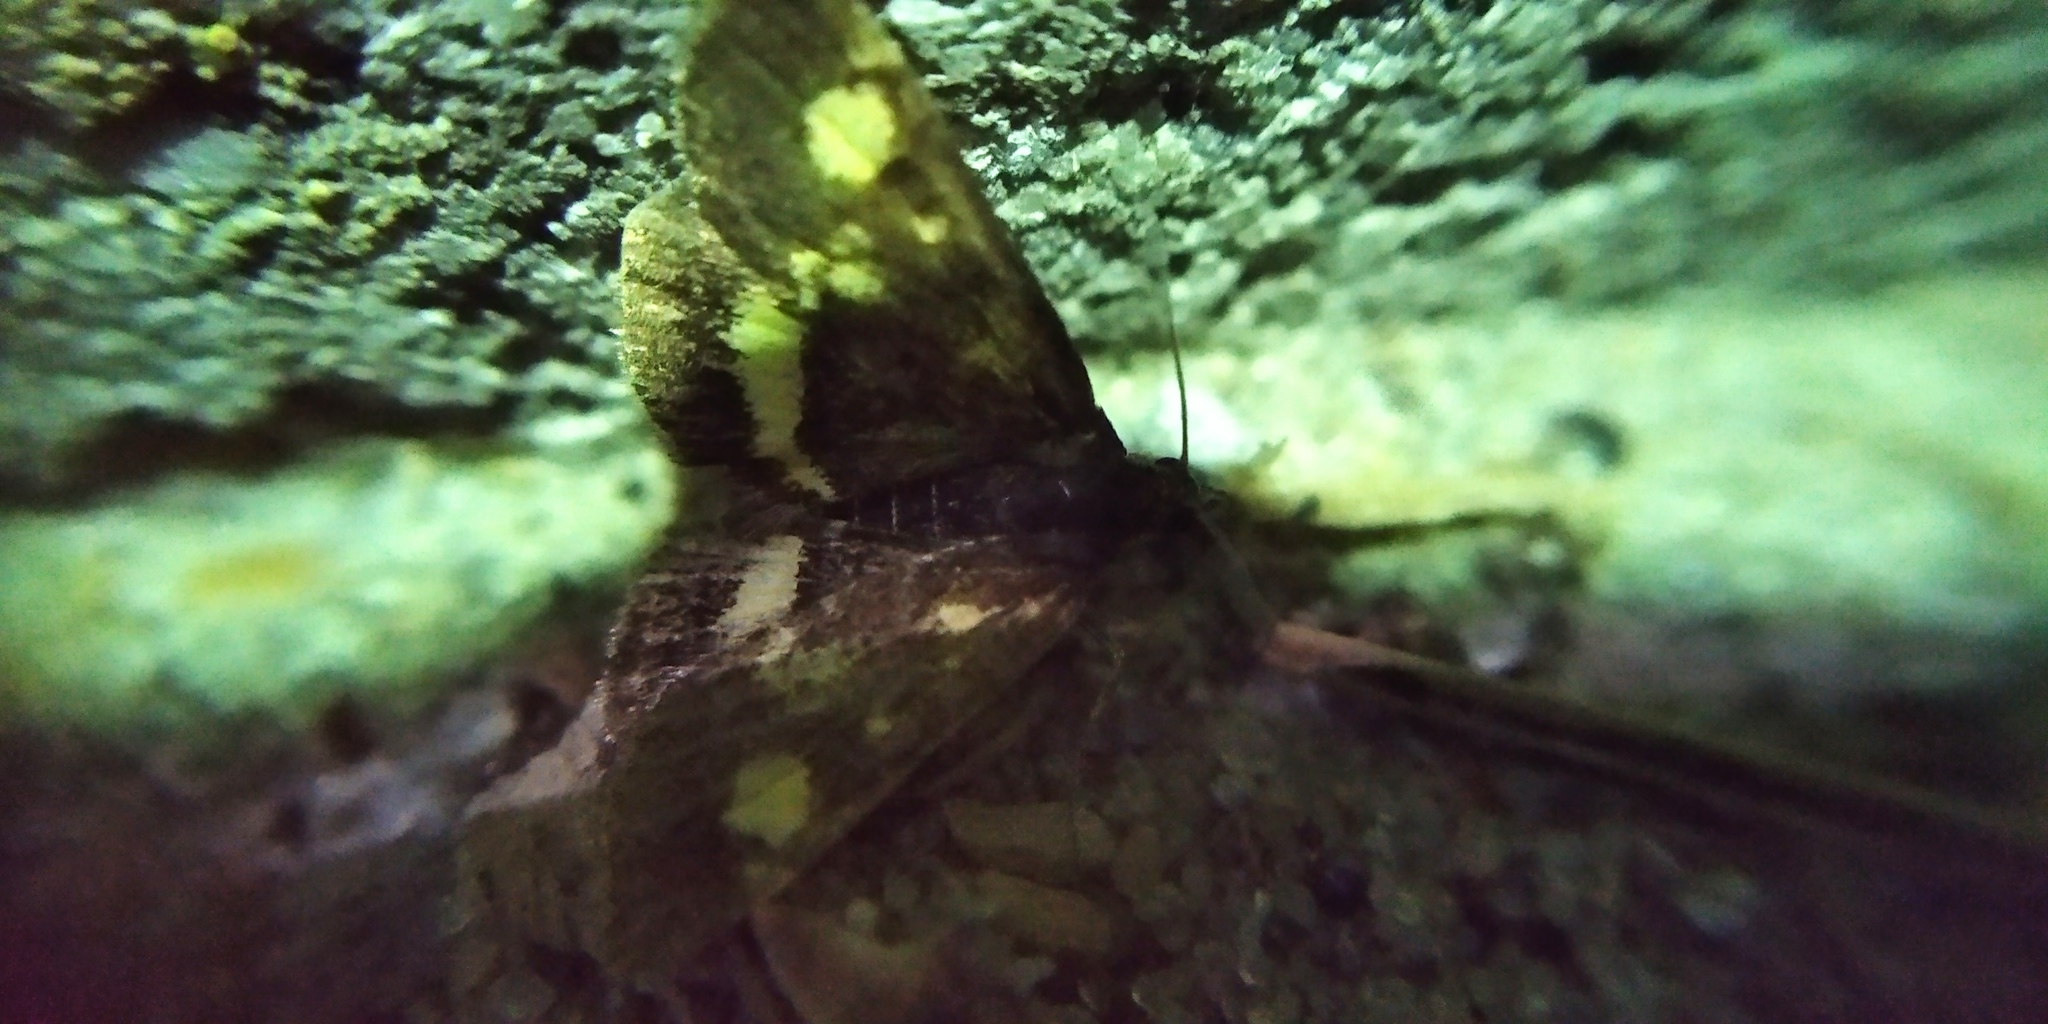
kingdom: Animalia
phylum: Arthropoda
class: Insecta
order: Lepidoptera
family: Crambidae
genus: Pyrausta
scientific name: Pyrausta aurata
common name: Small purple & gold
